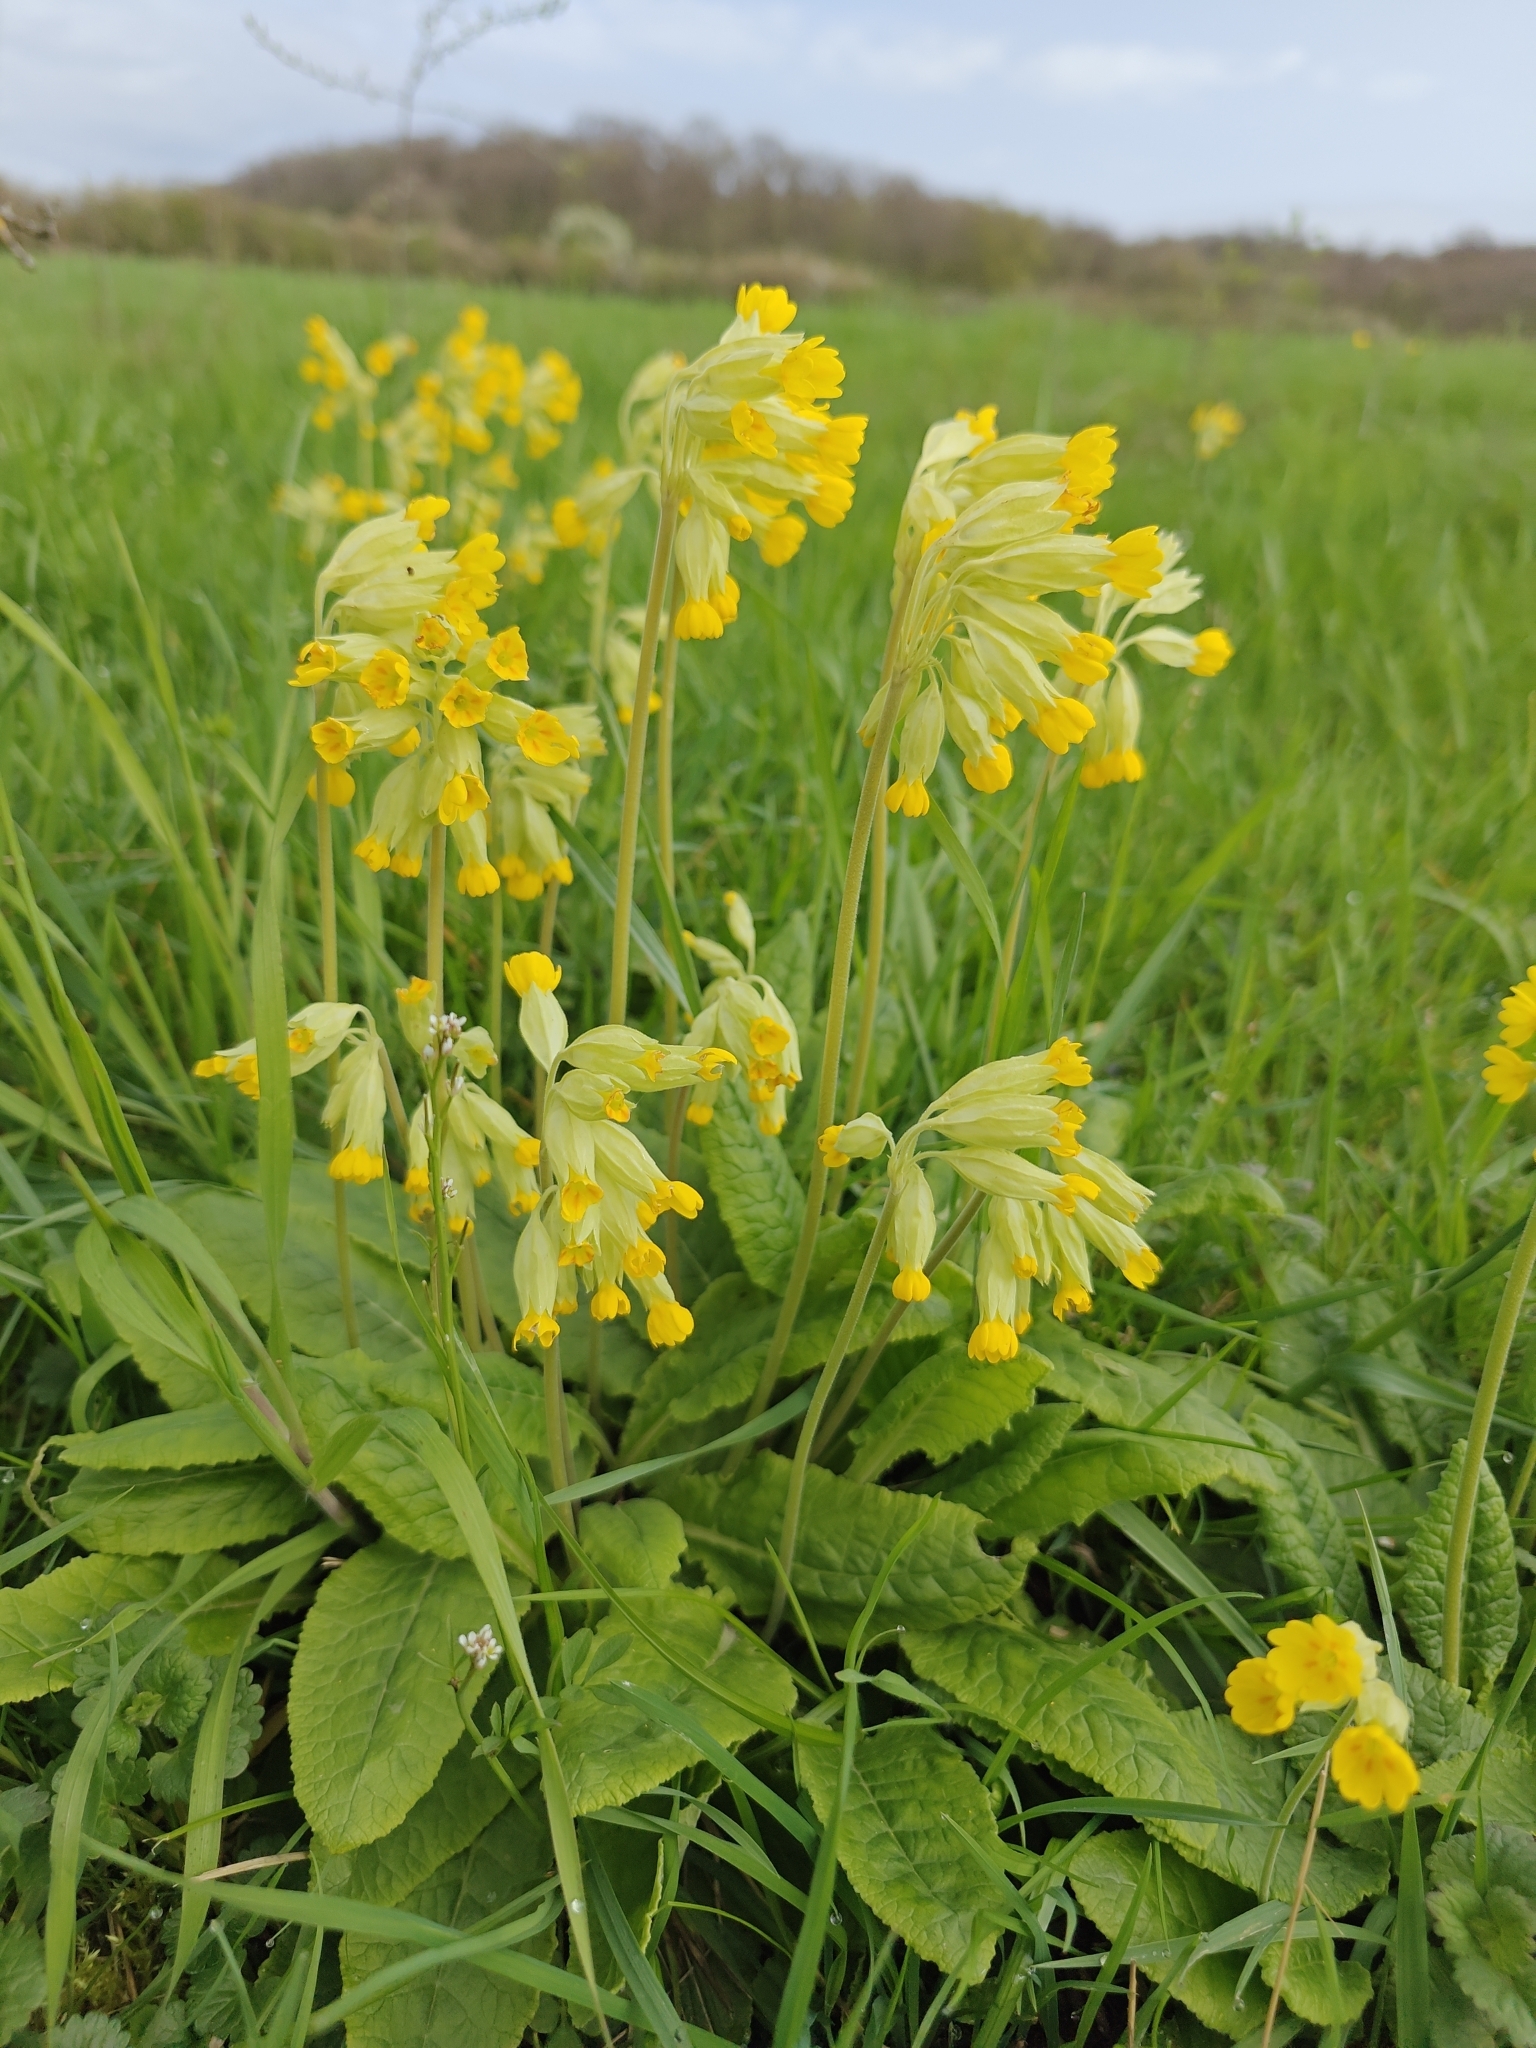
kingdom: Plantae
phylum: Tracheophyta
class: Magnoliopsida
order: Ericales
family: Primulaceae
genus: Primula
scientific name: Primula veris
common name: Cowslip
